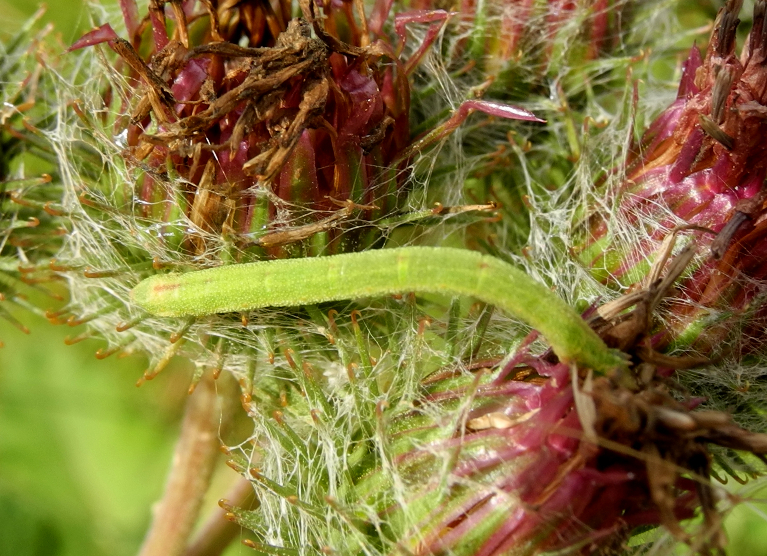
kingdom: Animalia
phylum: Arthropoda
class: Insecta
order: Lepidoptera
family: Geometridae
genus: Thalera
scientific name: Thalera fimbrialis
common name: Sussex emerald
